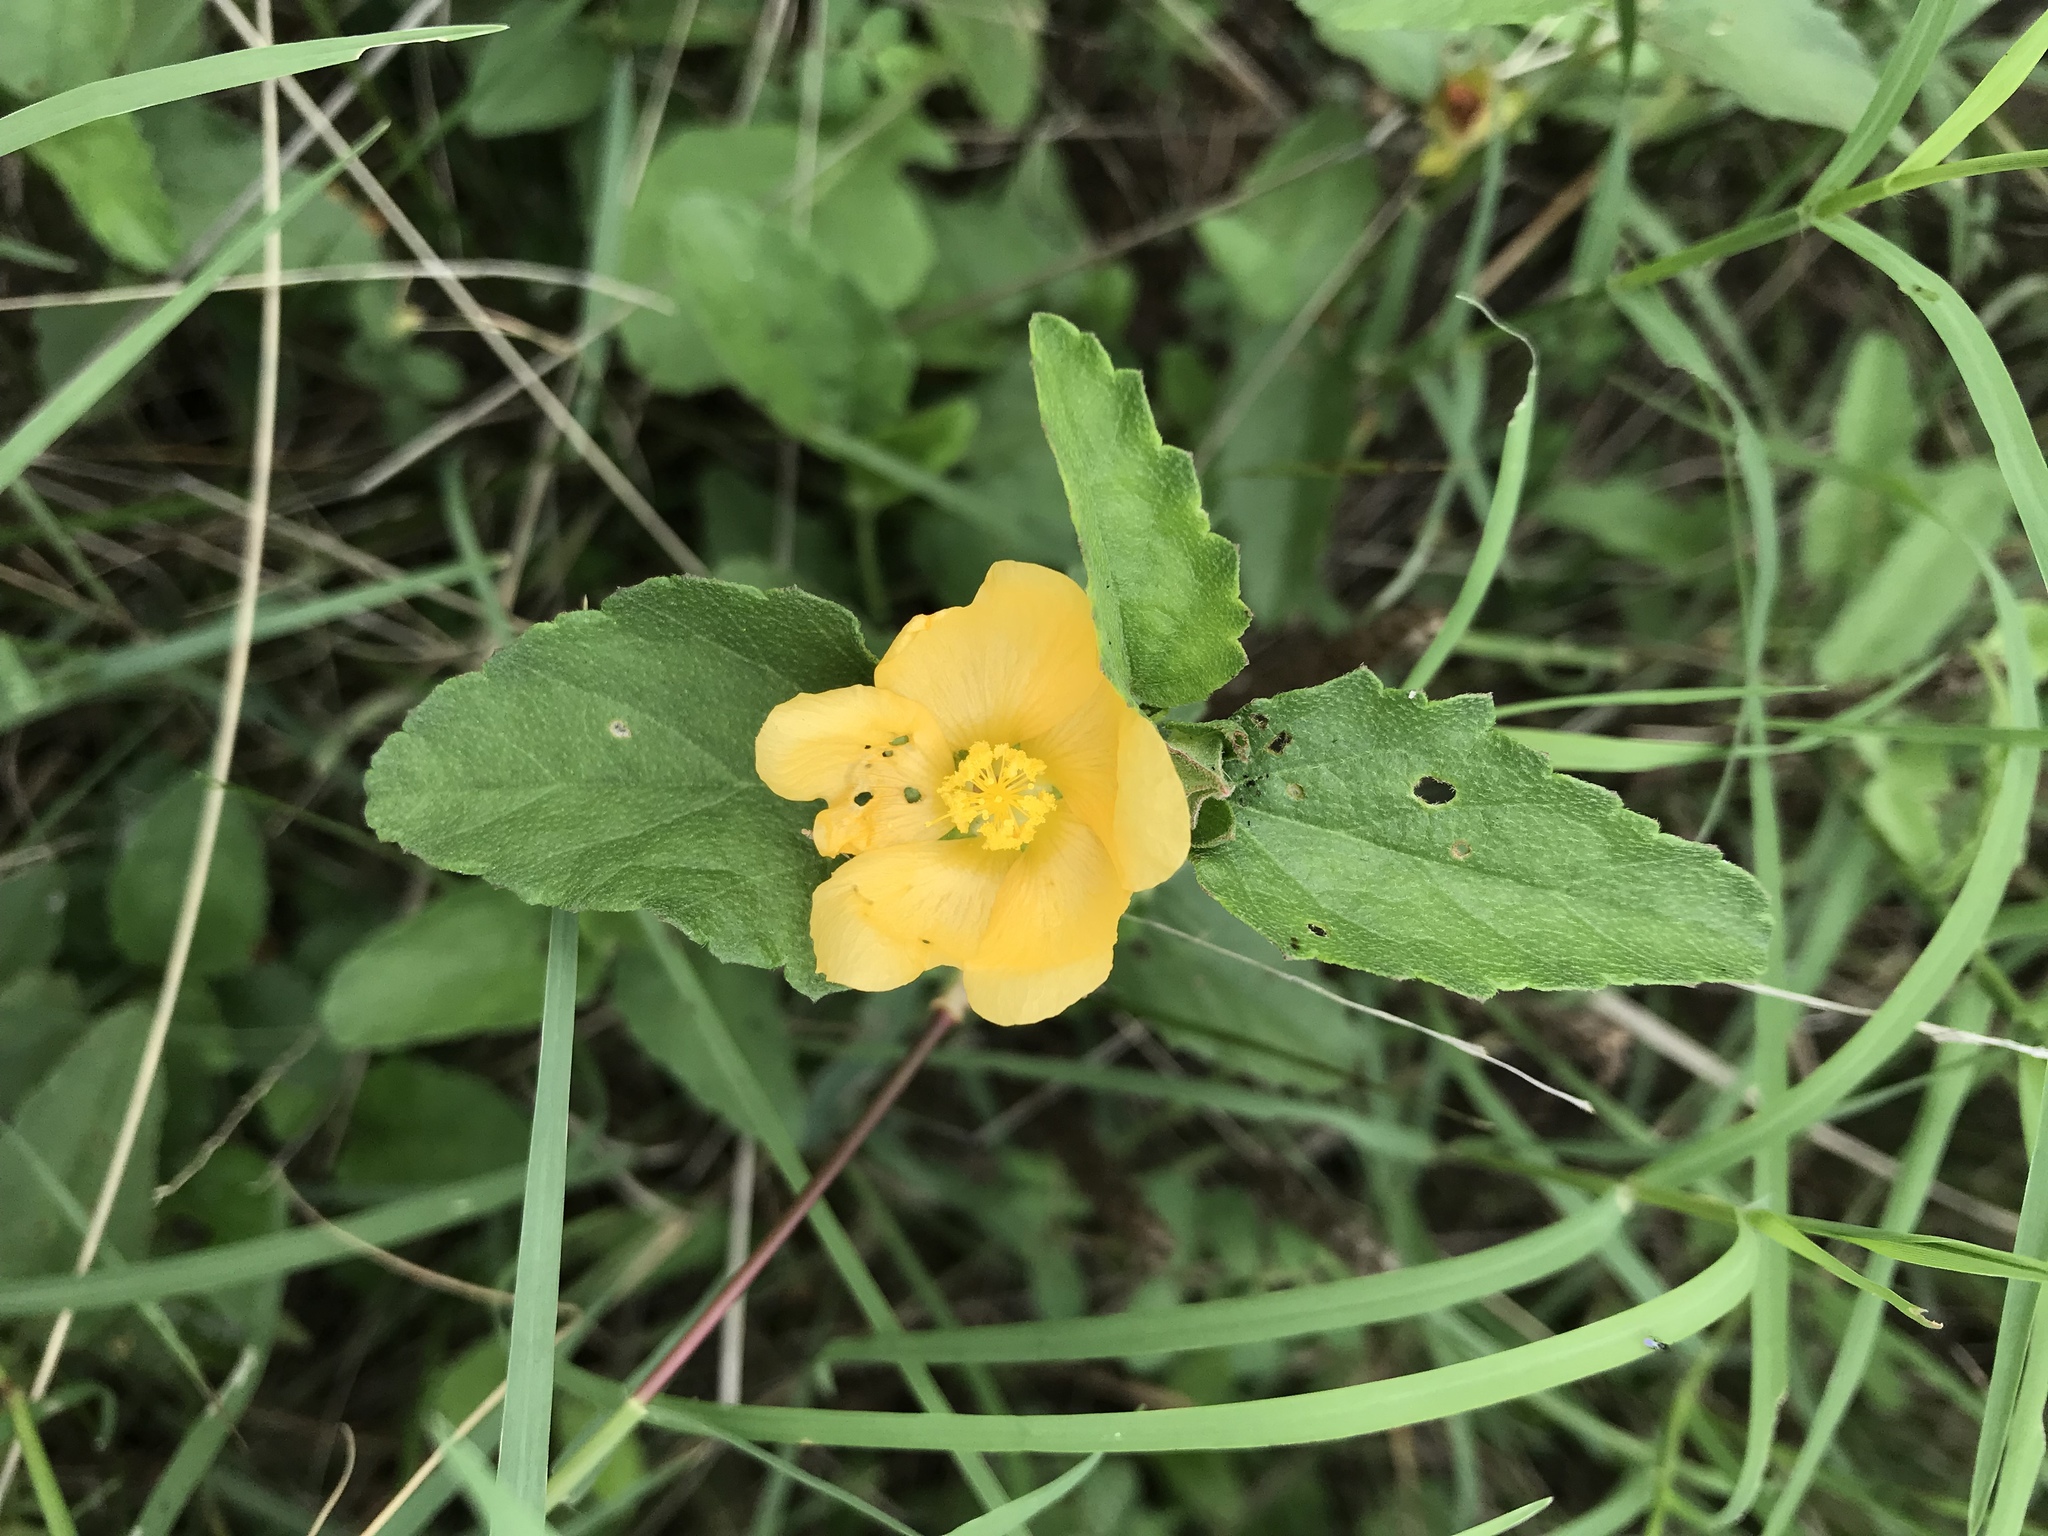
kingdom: Plantae
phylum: Tracheophyta
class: Magnoliopsida
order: Malvales
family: Malvaceae
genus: Malvastrum
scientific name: Malvastrum aurantiacum
